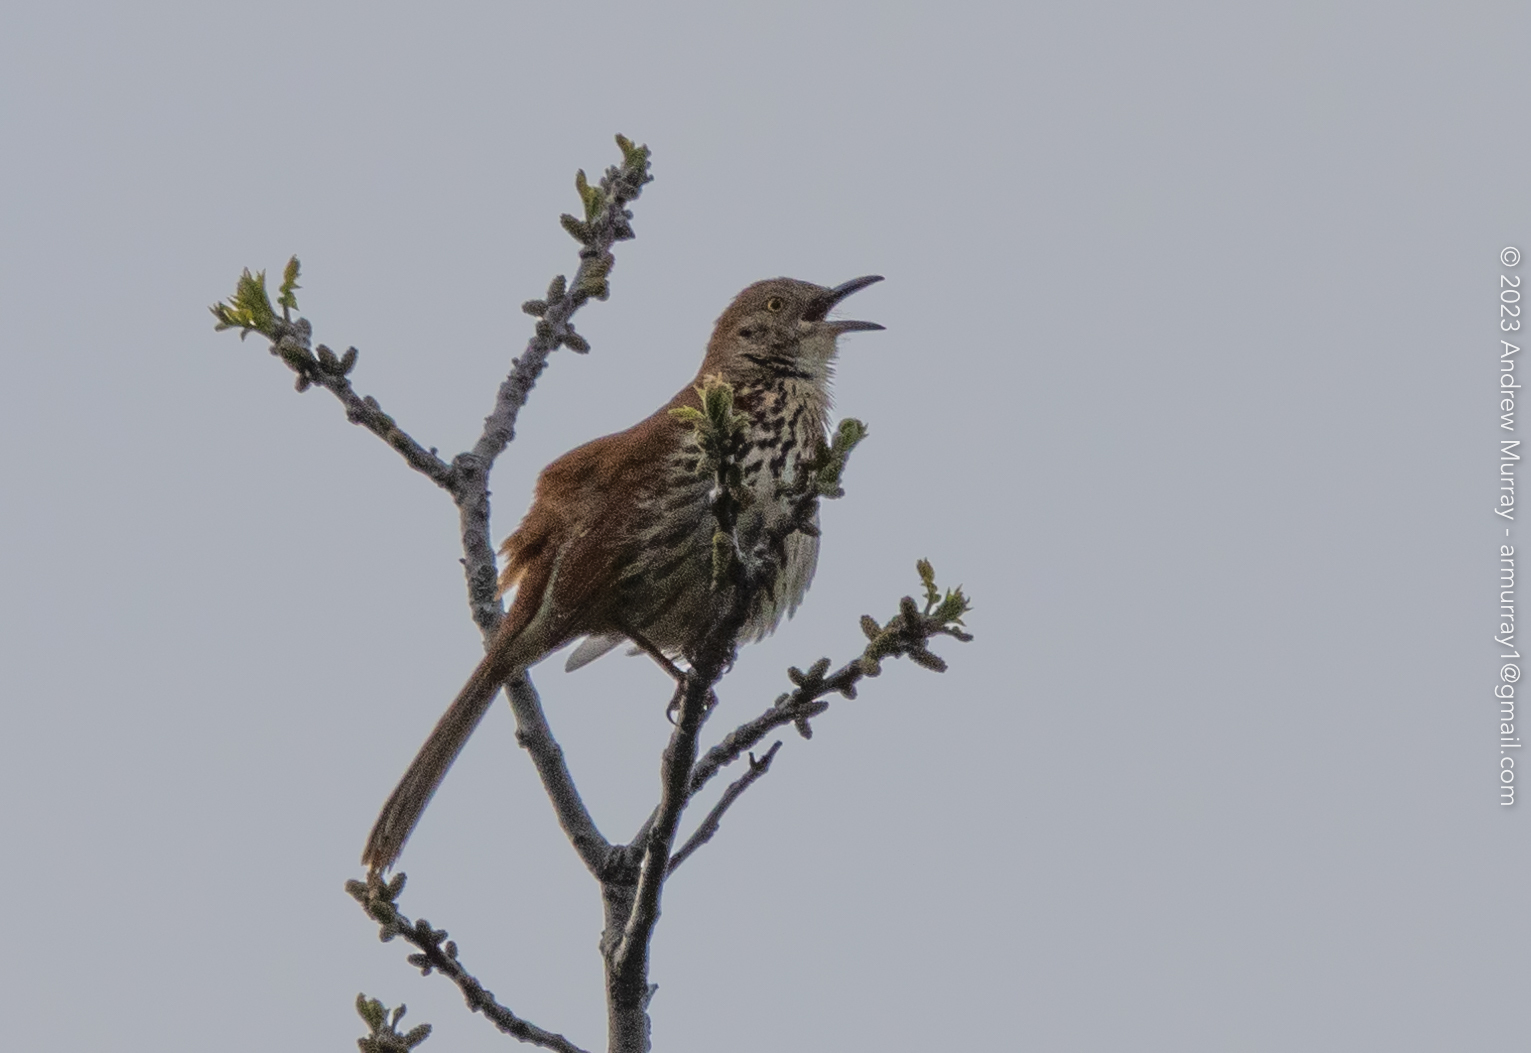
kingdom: Animalia
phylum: Chordata
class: Aves
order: Passeriformes
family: Mimidae
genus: Toxostoma
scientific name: Toxostoma rufum
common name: Brown thrasher
